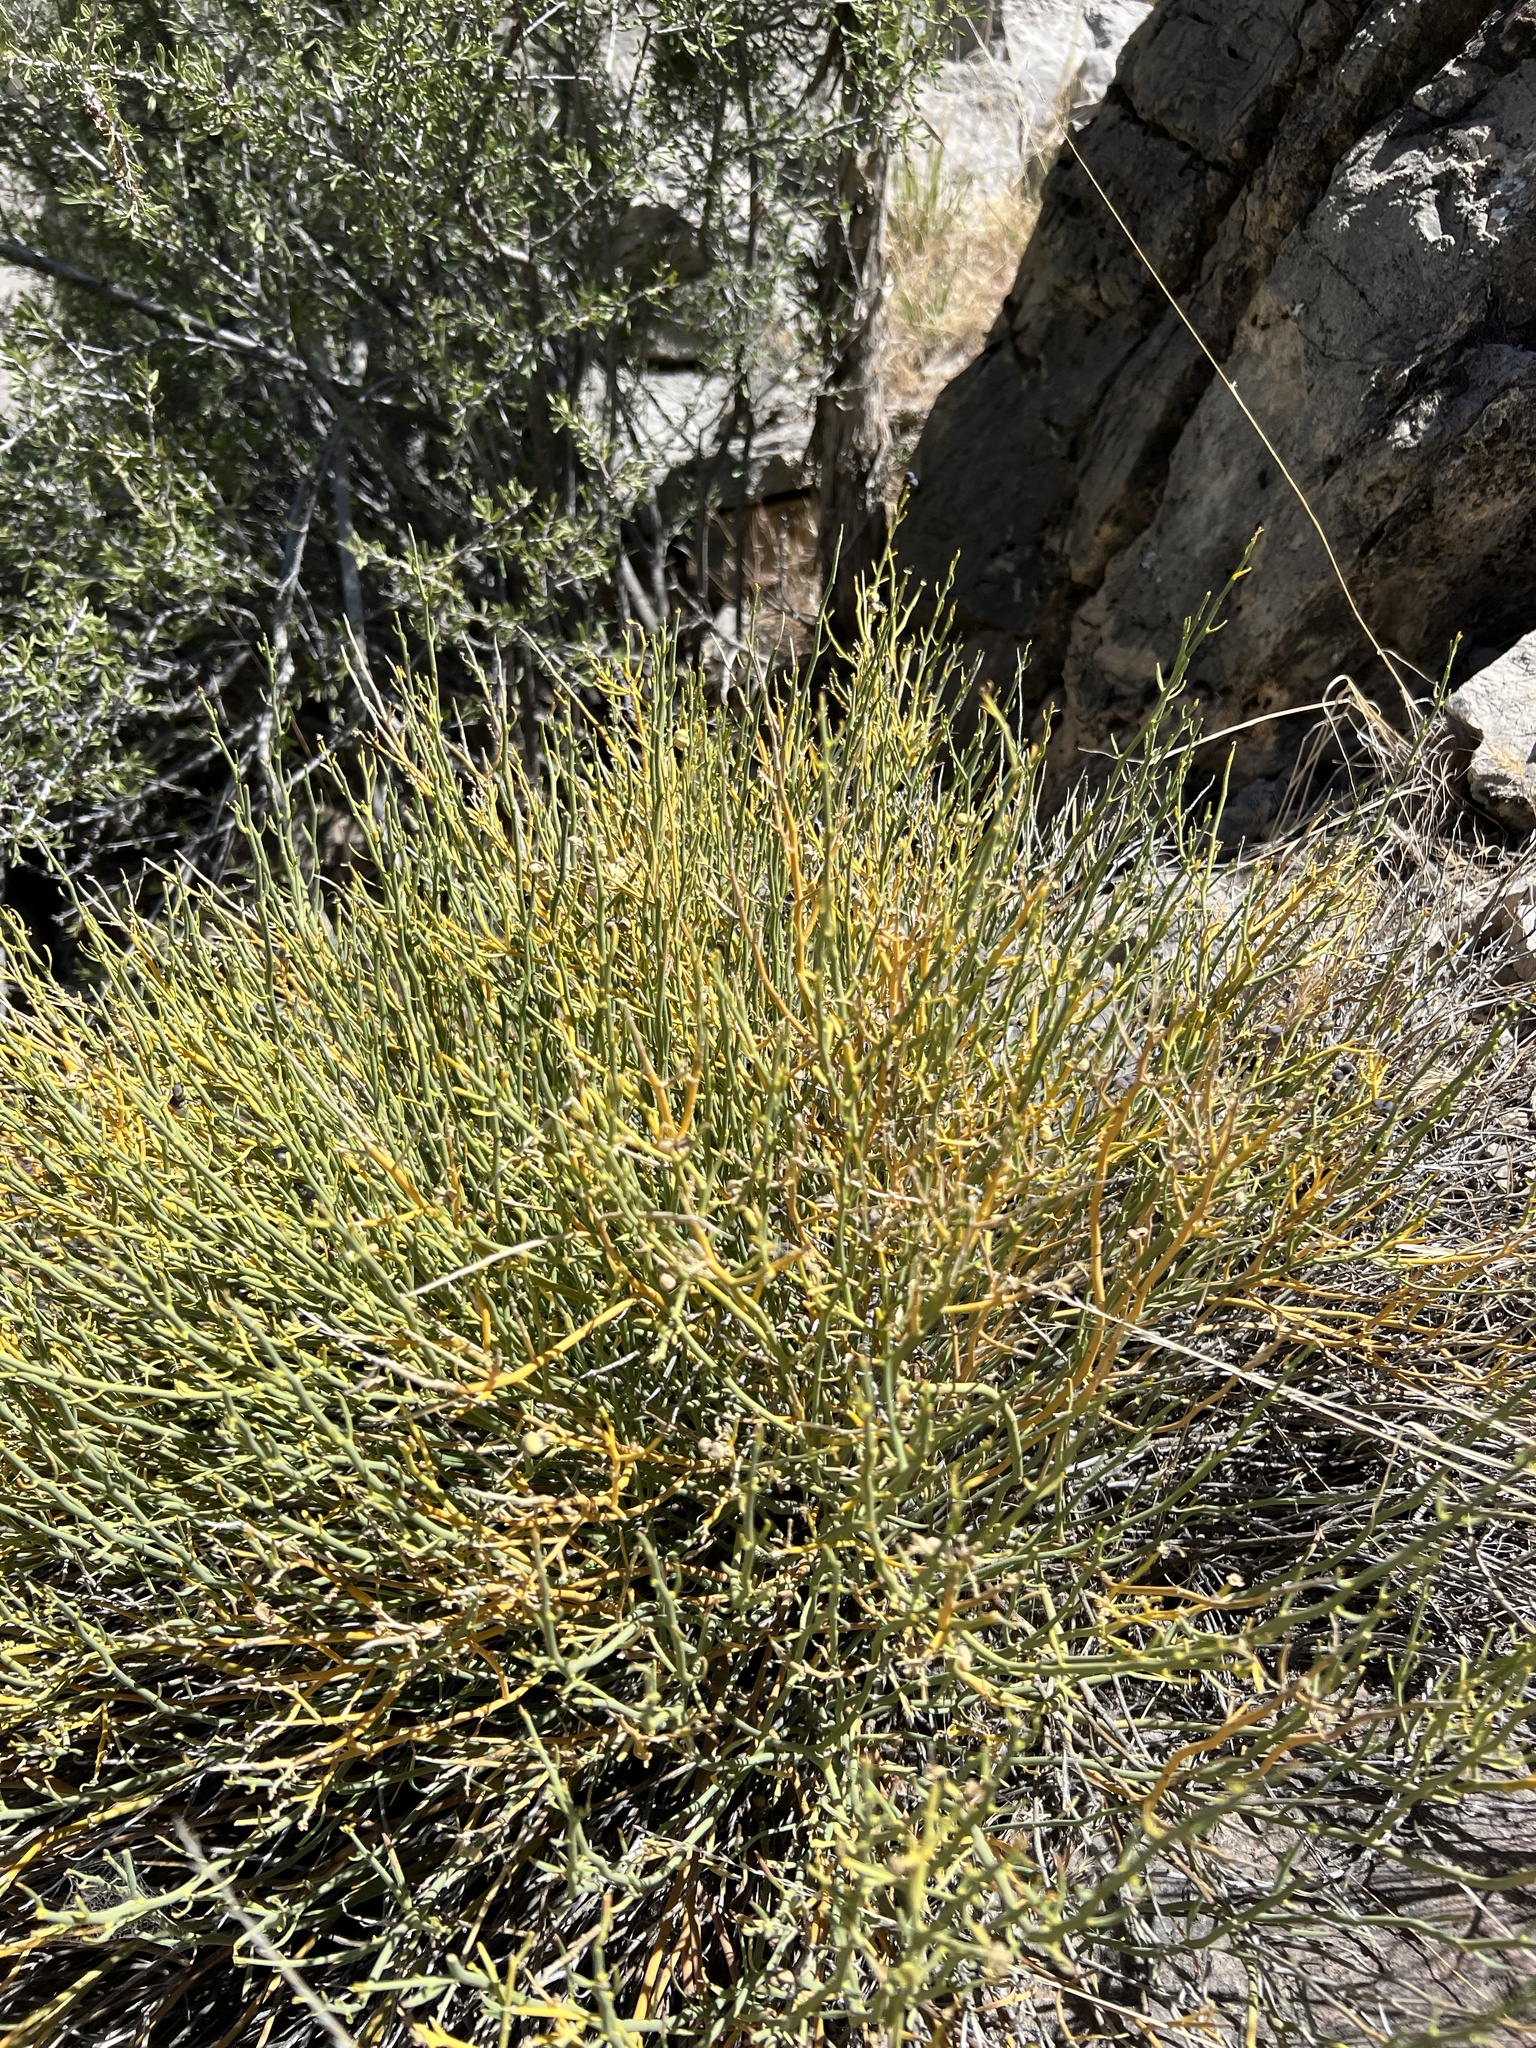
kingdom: Plantae
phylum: Tracheophyta
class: Magnoliopsida
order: Sapindales
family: Rutaceae
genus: Thamnosma
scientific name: Thamnosma montana
